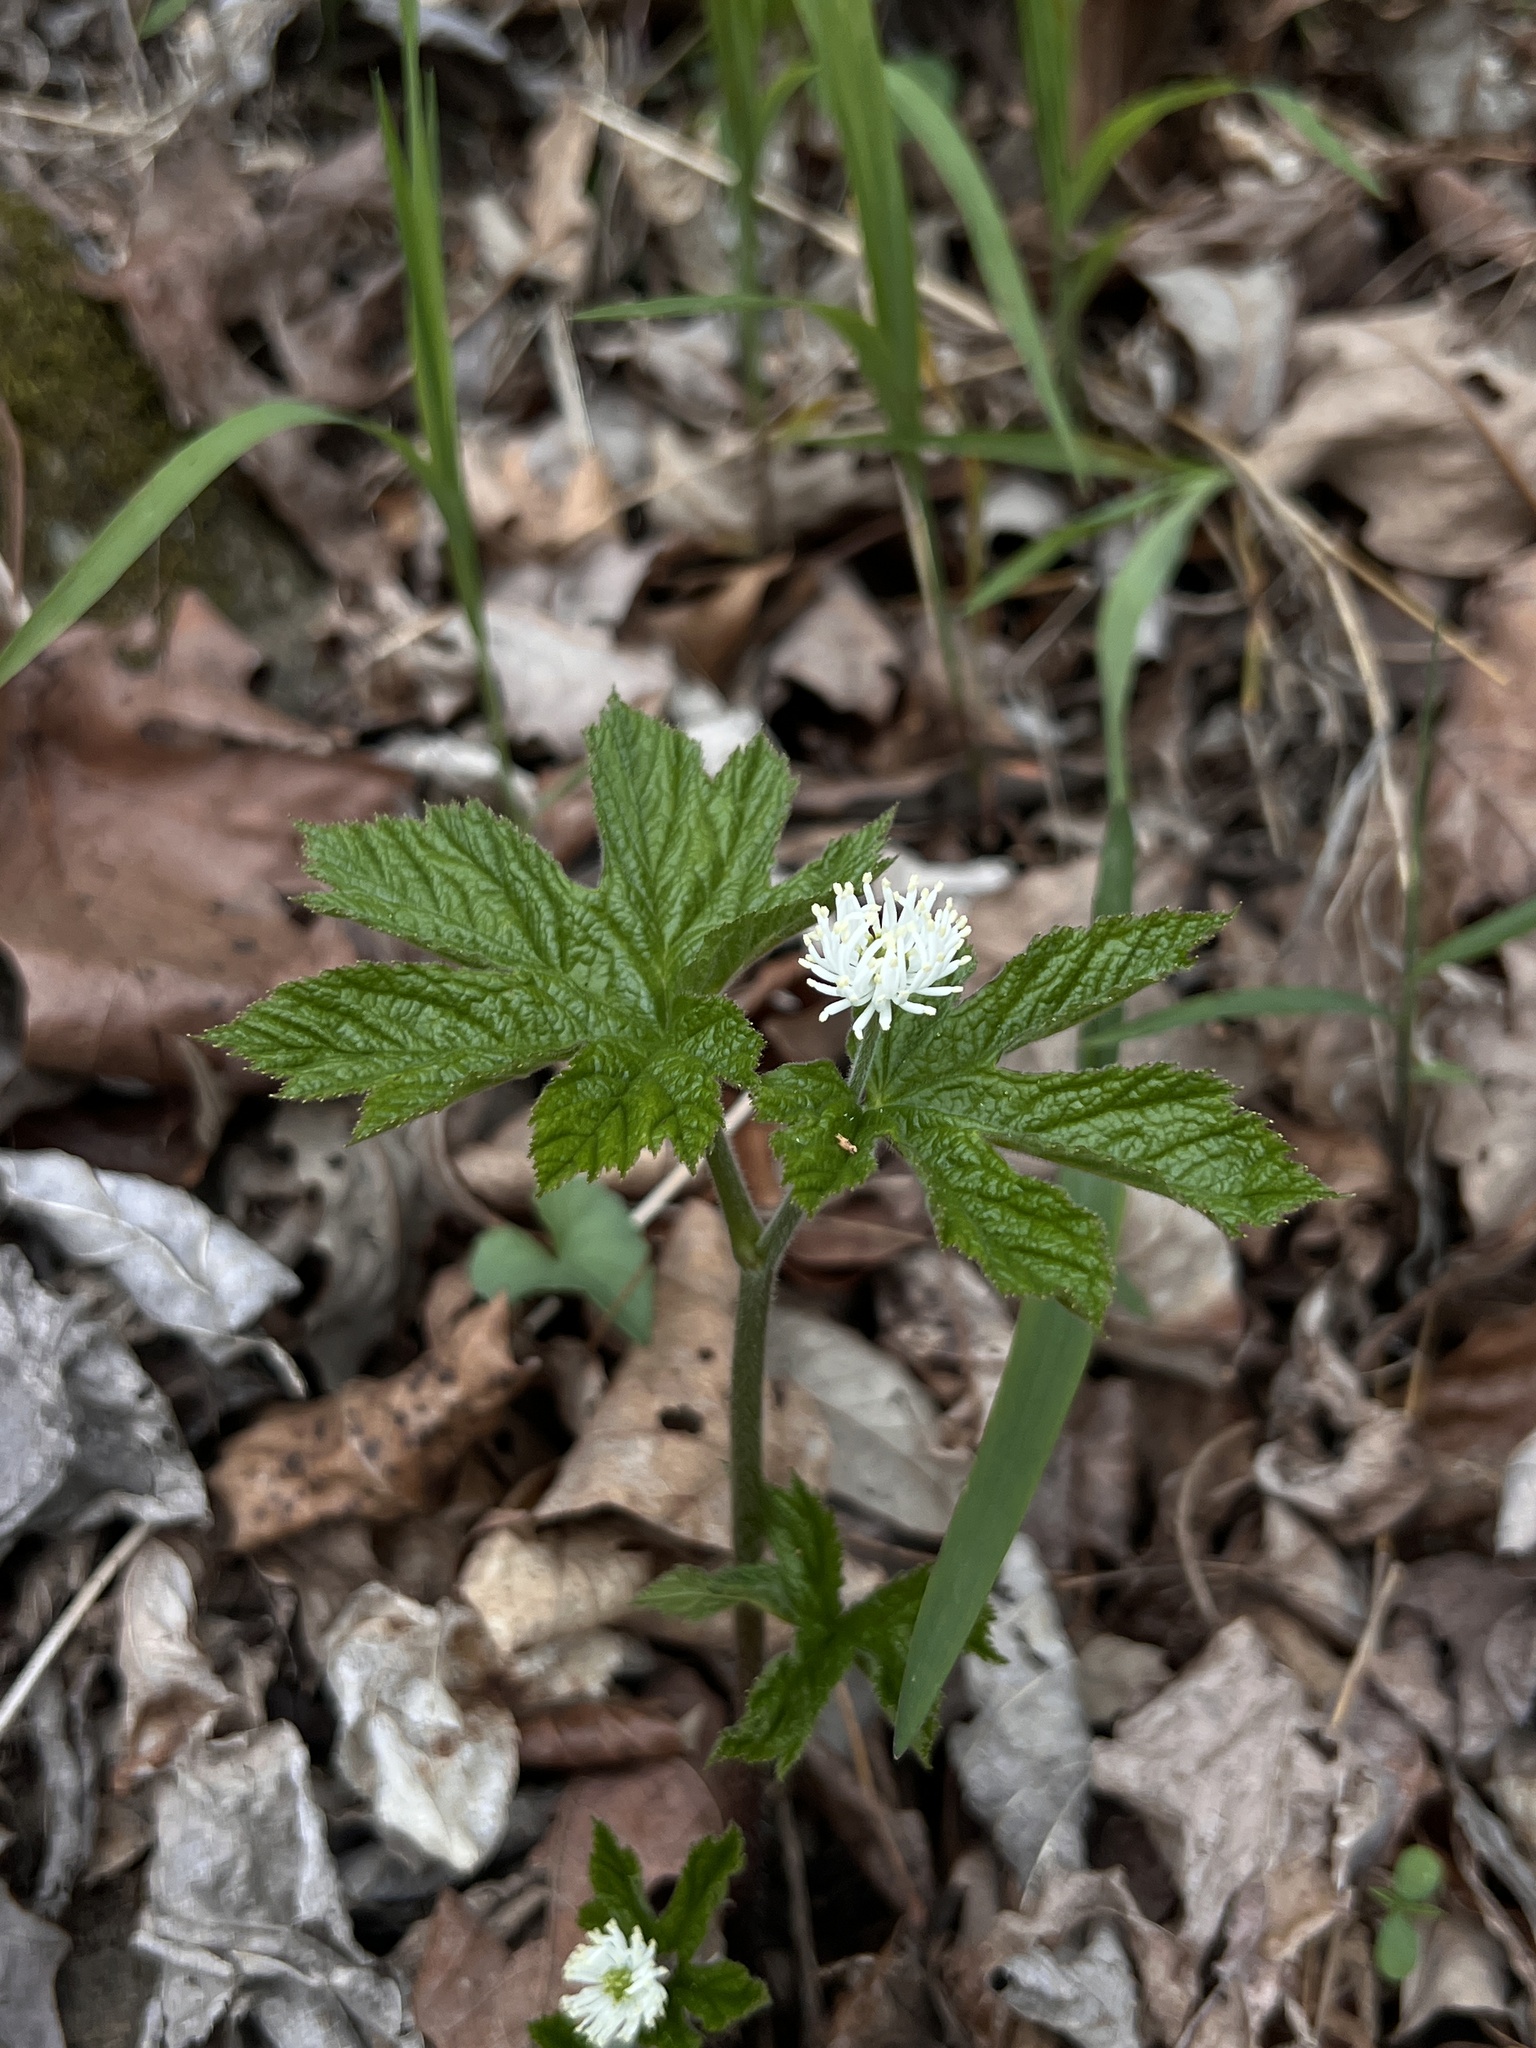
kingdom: Plantae
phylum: Tracheophyta
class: Magnoliopsida
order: Ranunculales
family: Ranunculaceae
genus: Hydrastis
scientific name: Hydrastis canadensis
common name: Goldenseal
